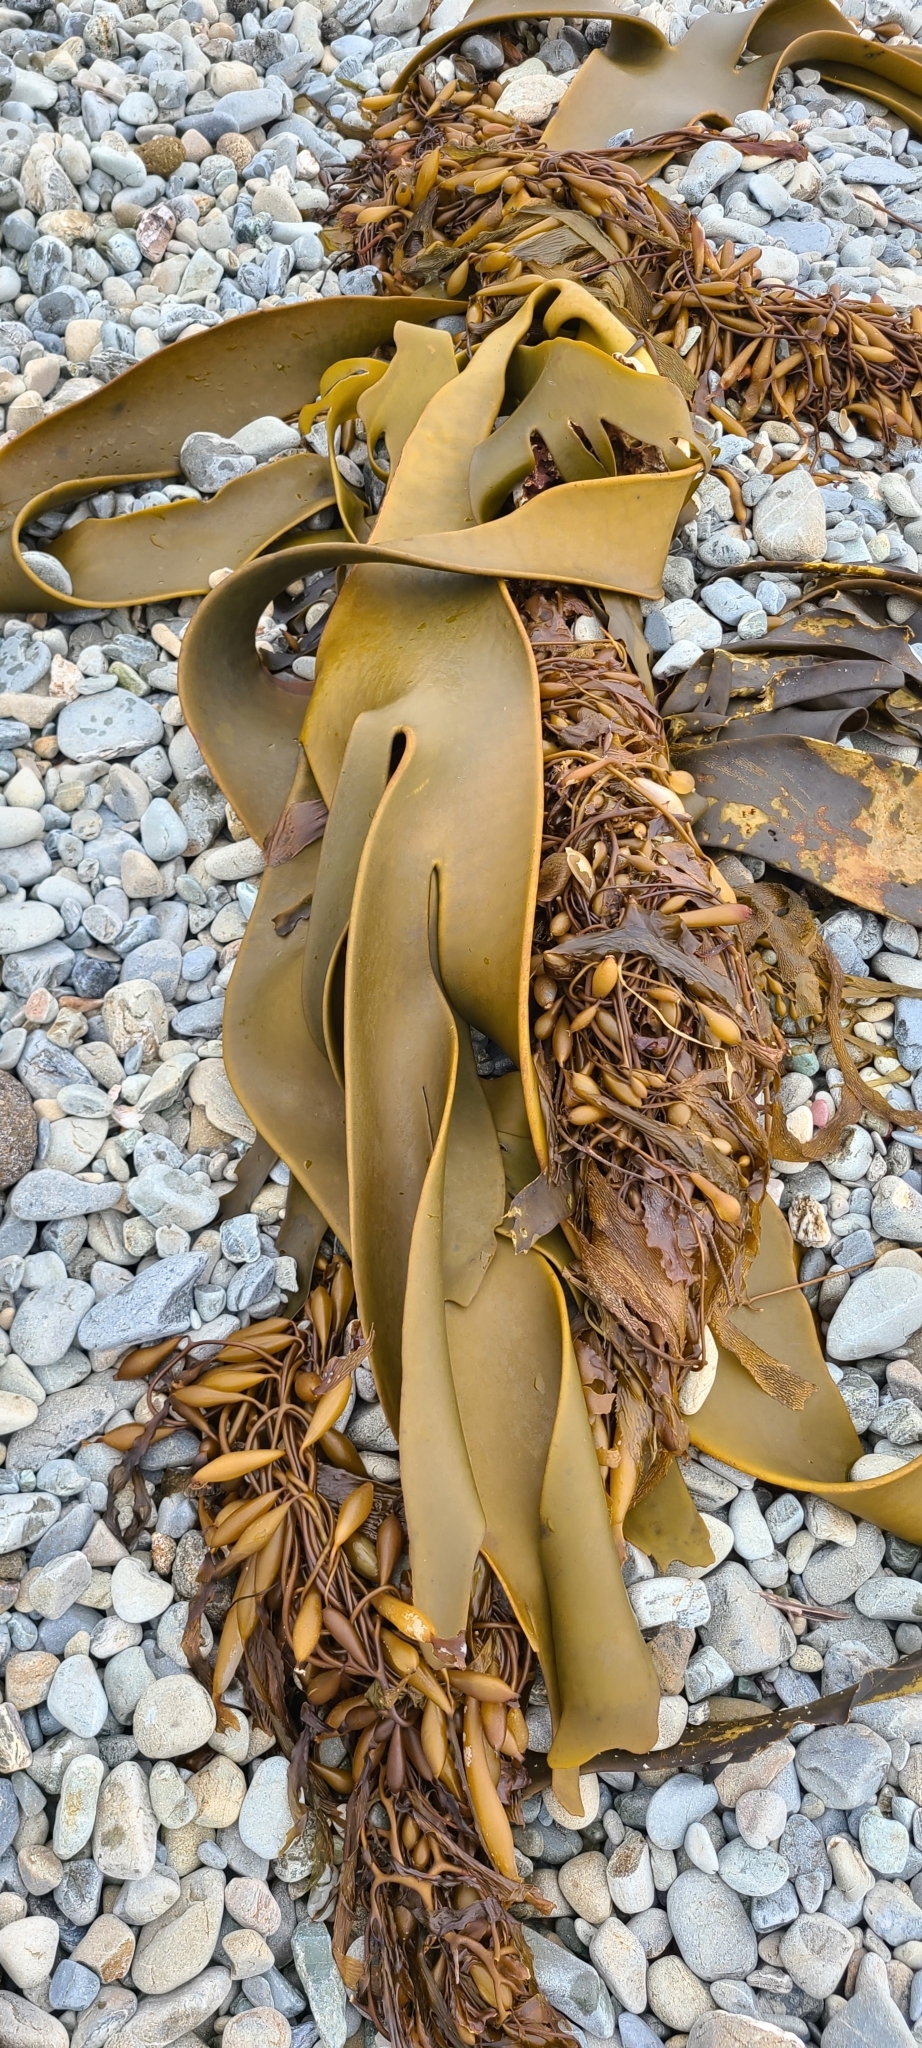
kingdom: Chromista
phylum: Ochrophyta
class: Phaeophyceae
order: Fucales
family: Durvillaeaceae
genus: Durvillaea
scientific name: Durvillaea antarctica
